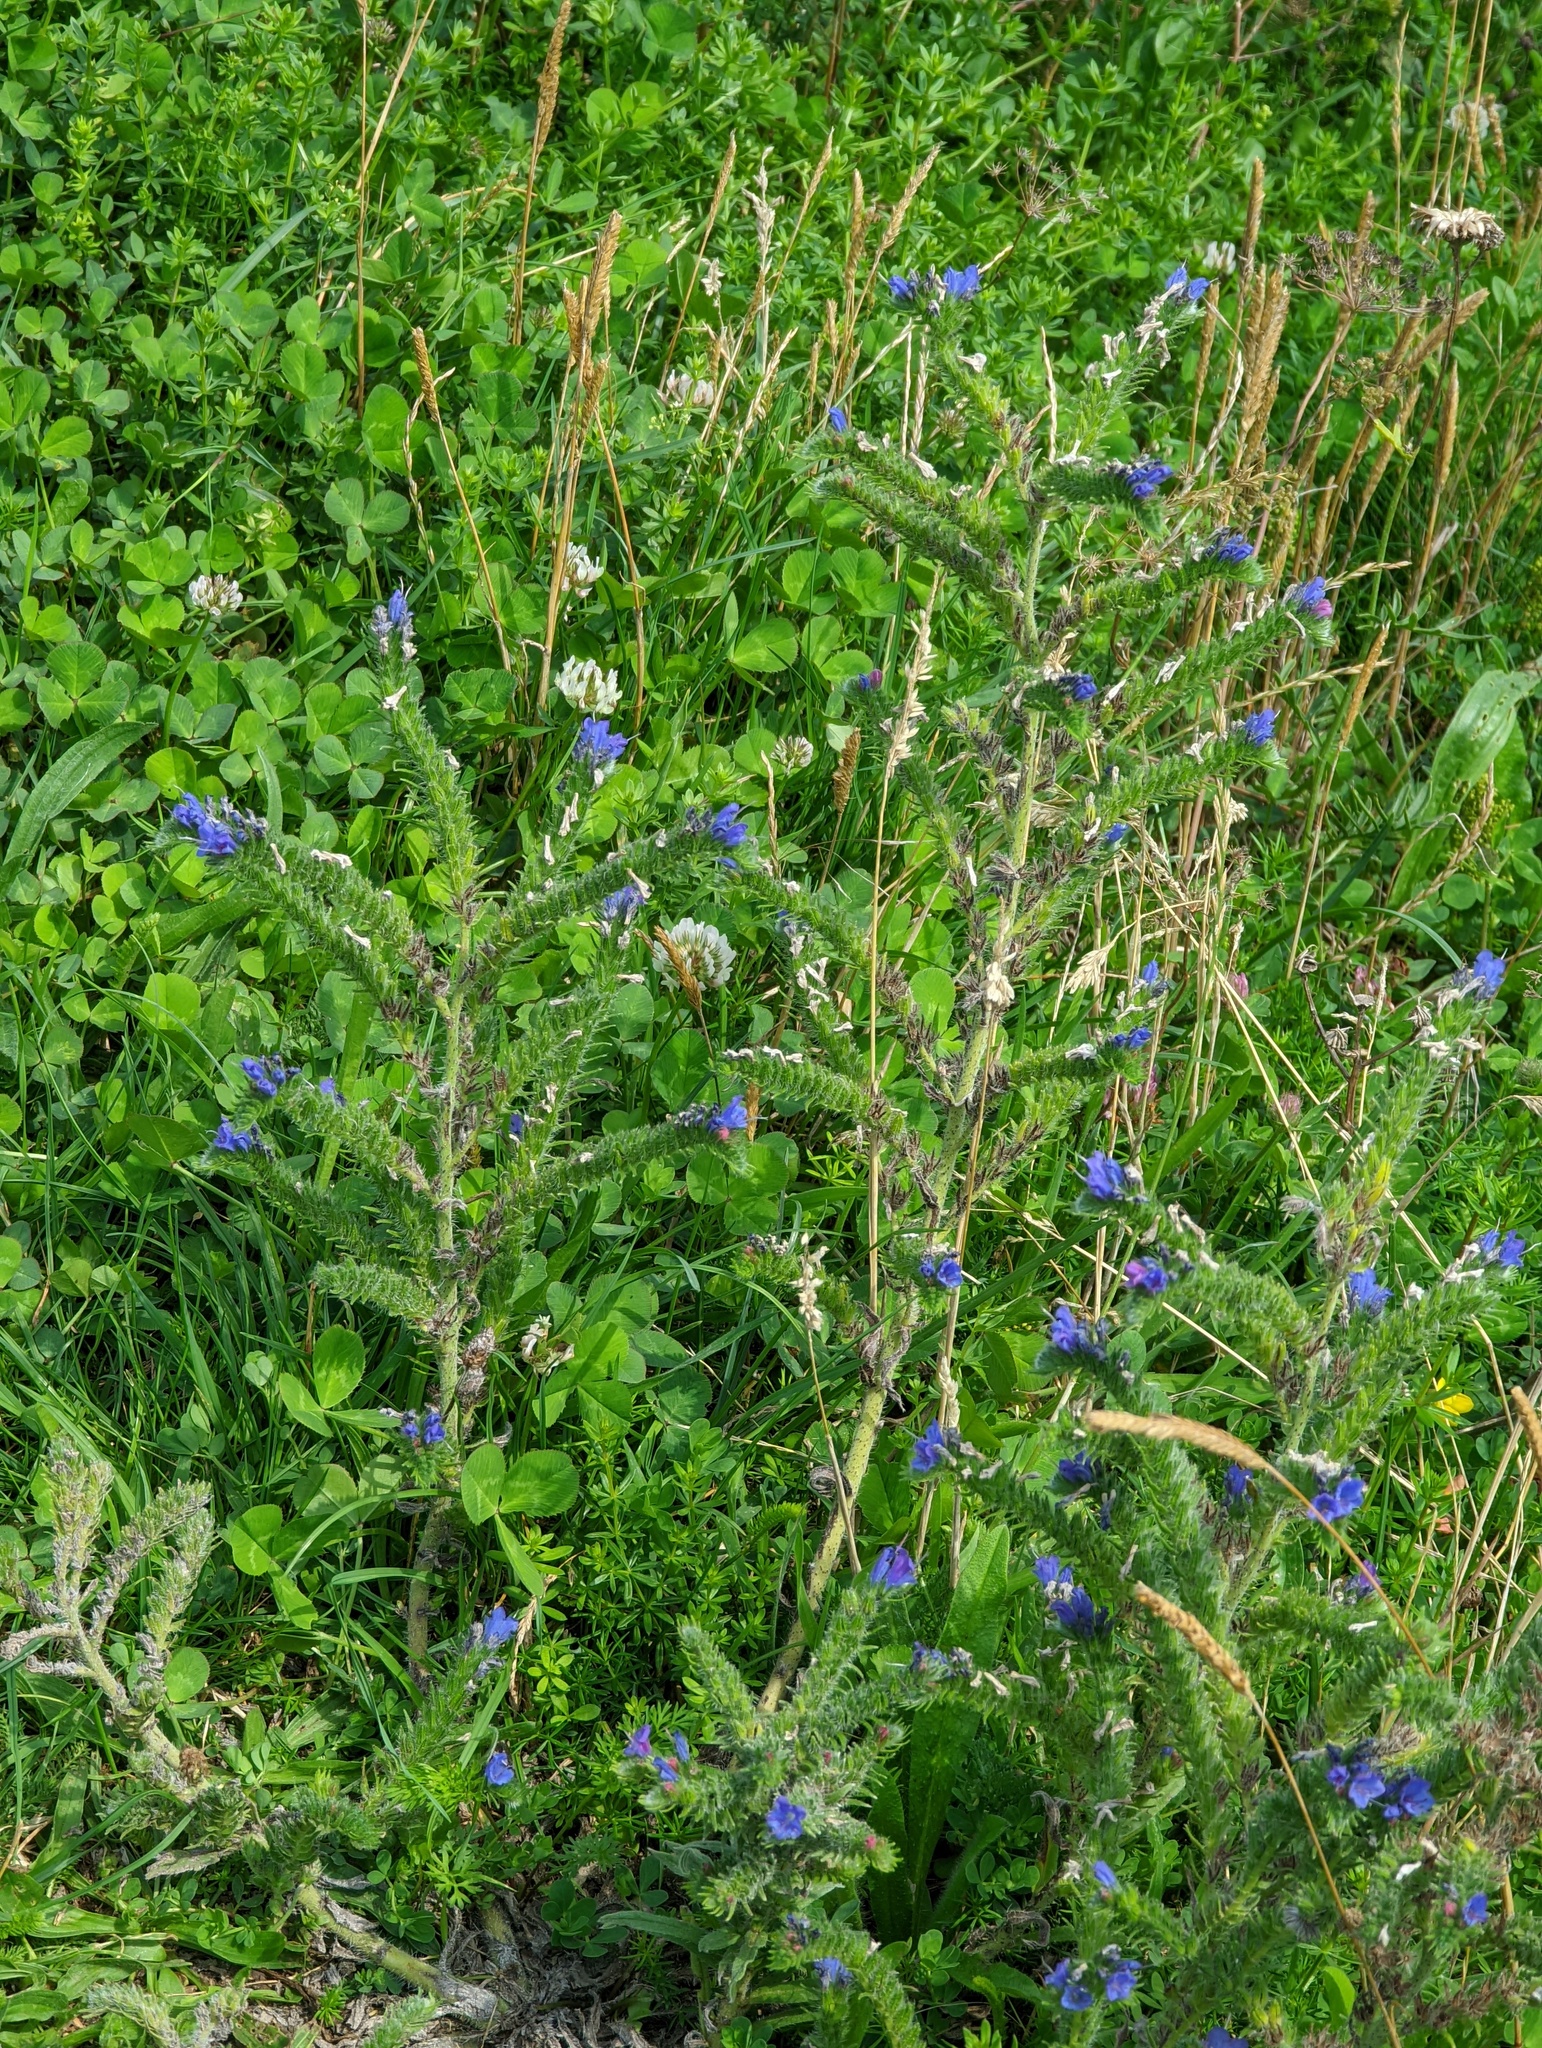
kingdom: Plantae
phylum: Tracheophyta
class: Magnoliopsida
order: Boraginales
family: Boraginaceae
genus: Echium
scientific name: Echium vulgare
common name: Common viper's bugloss
